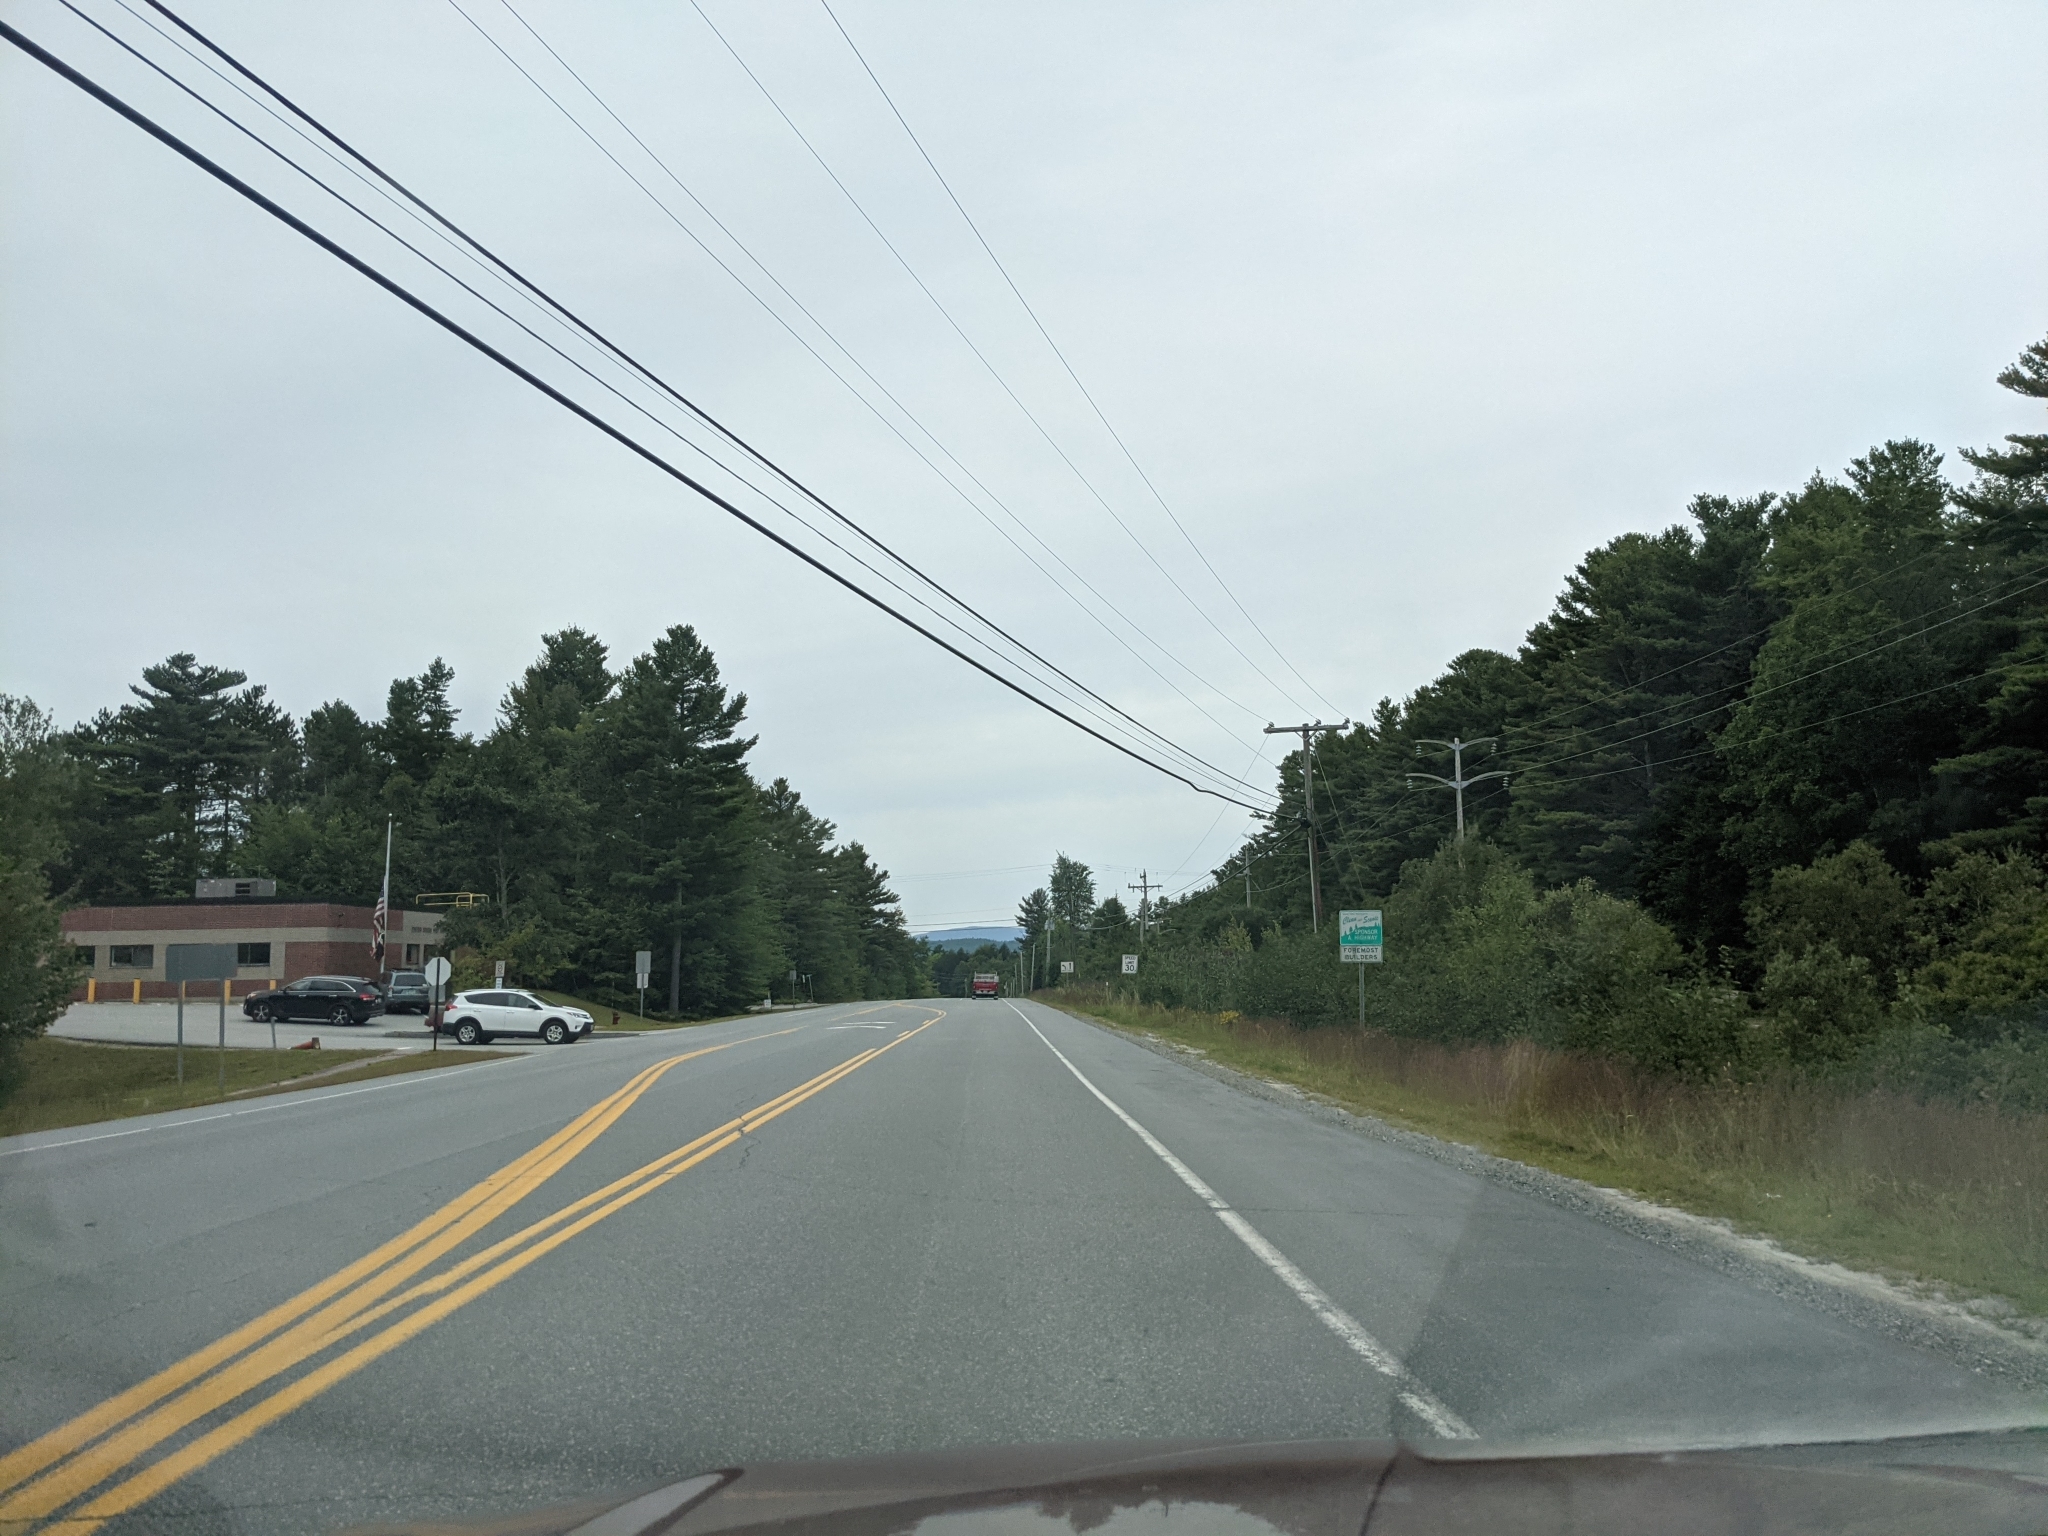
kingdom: Plantae
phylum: Tracheophyta
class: Pinopsida
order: Pinales
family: Pinaceae
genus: Pinus
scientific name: Pinus strobus
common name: Weymouth pine
